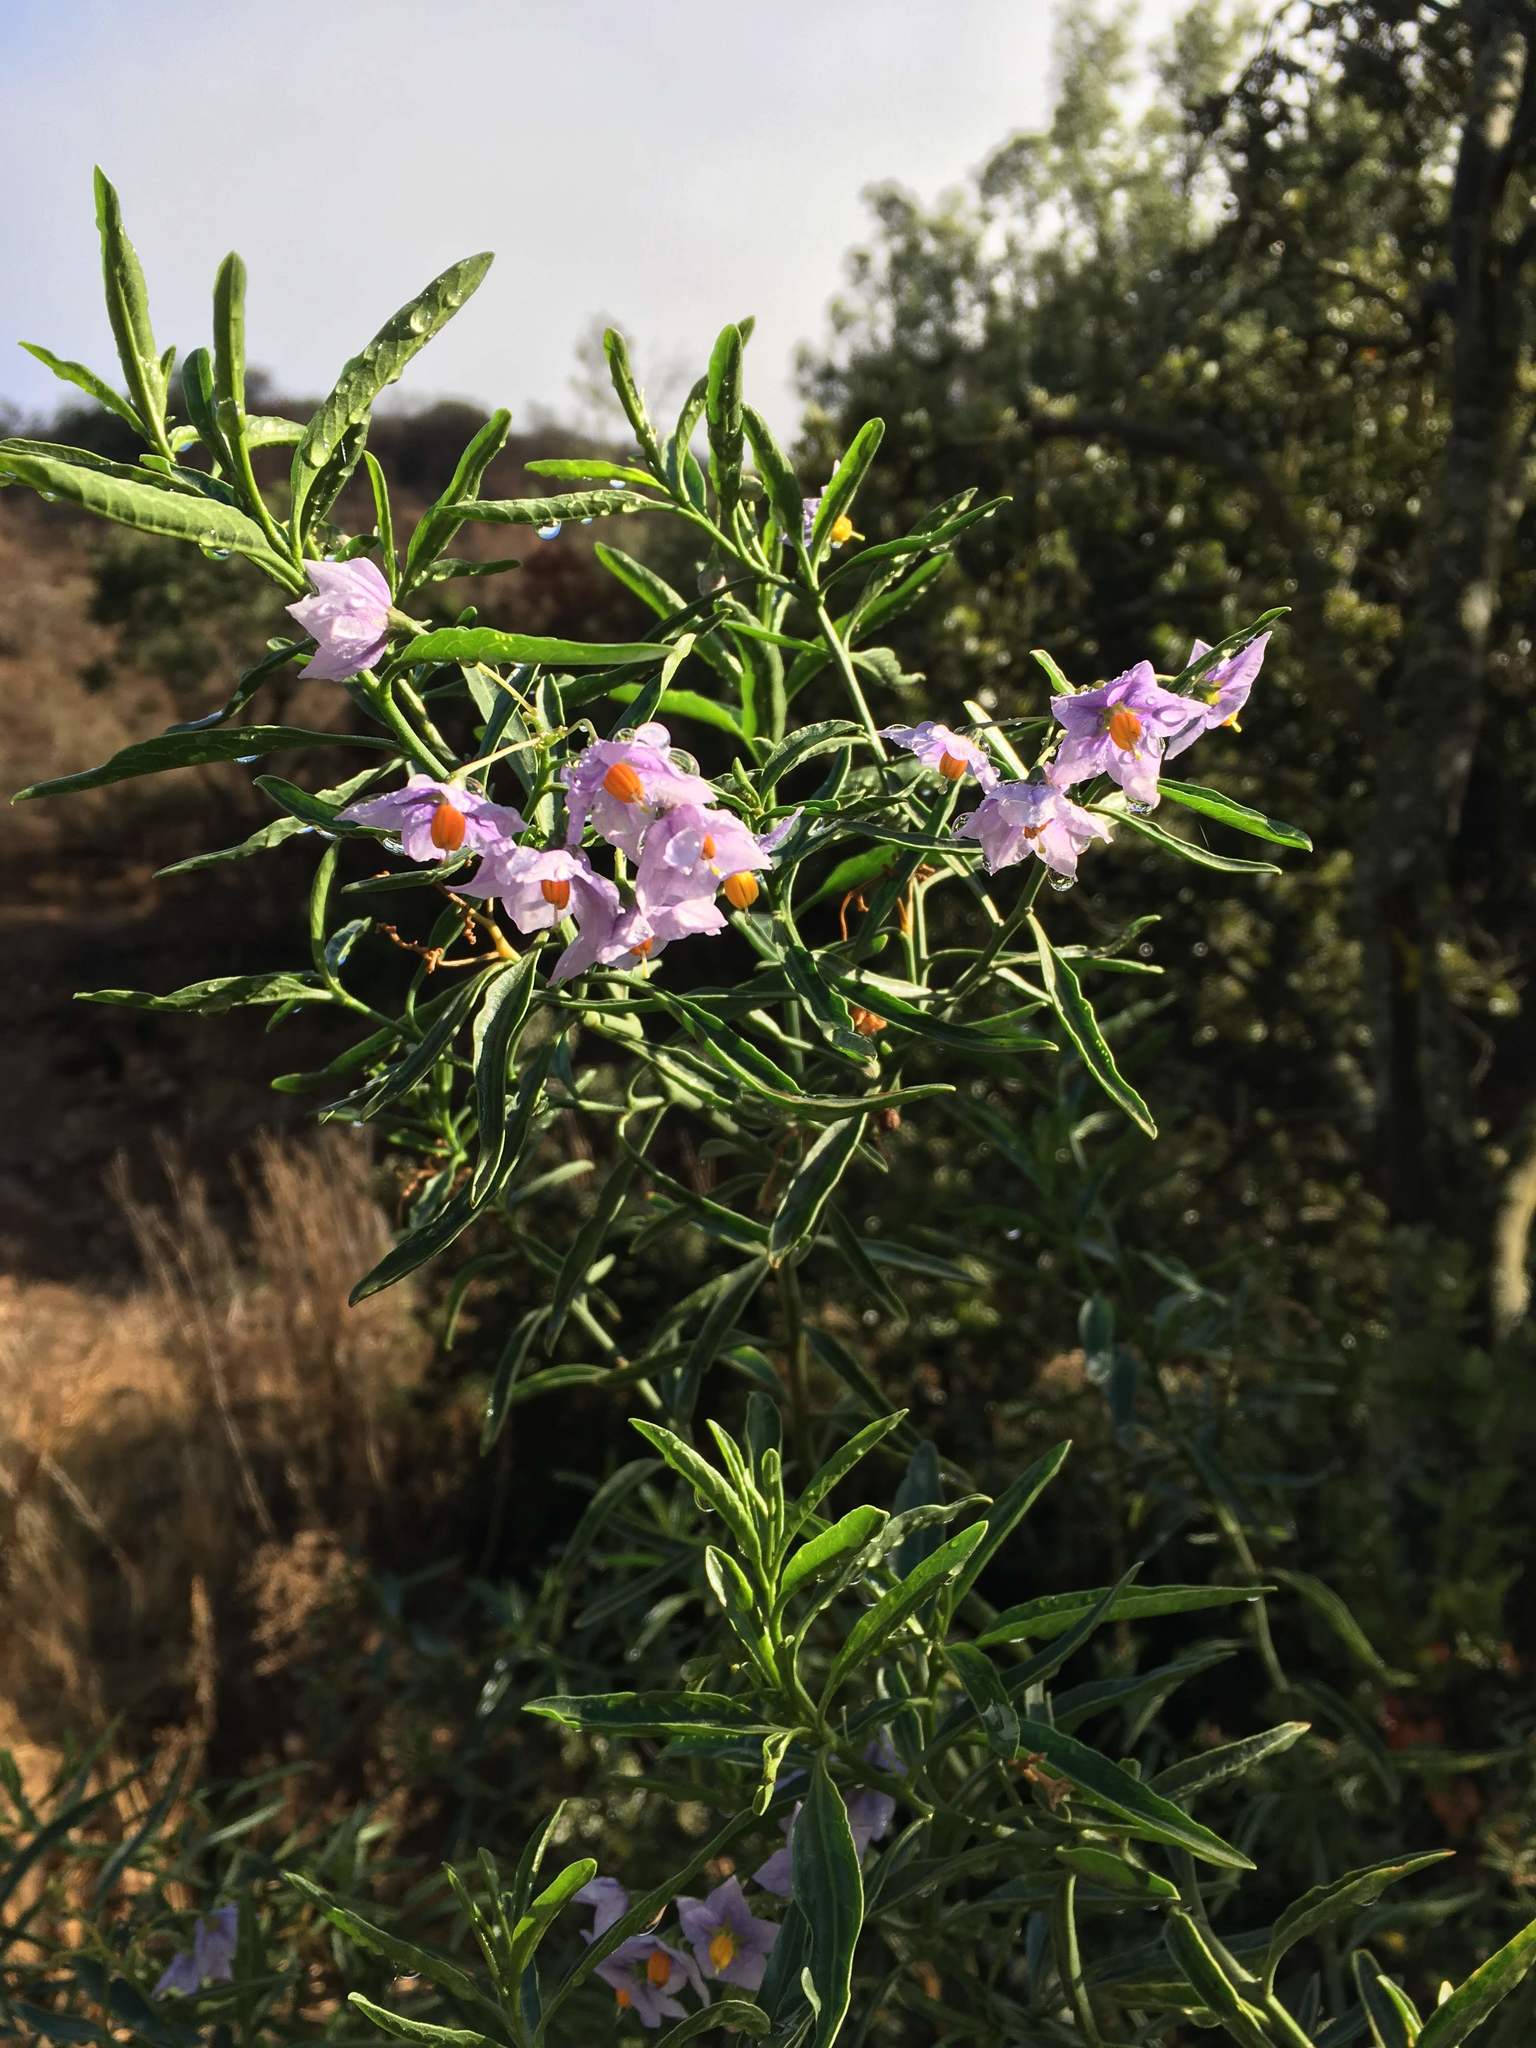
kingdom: Plantae
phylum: Tracheophyta
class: Magnoliopsida
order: Solanales
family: Solanaceae
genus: Solanum
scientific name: Solanum crispum
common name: Chilean nightshade
